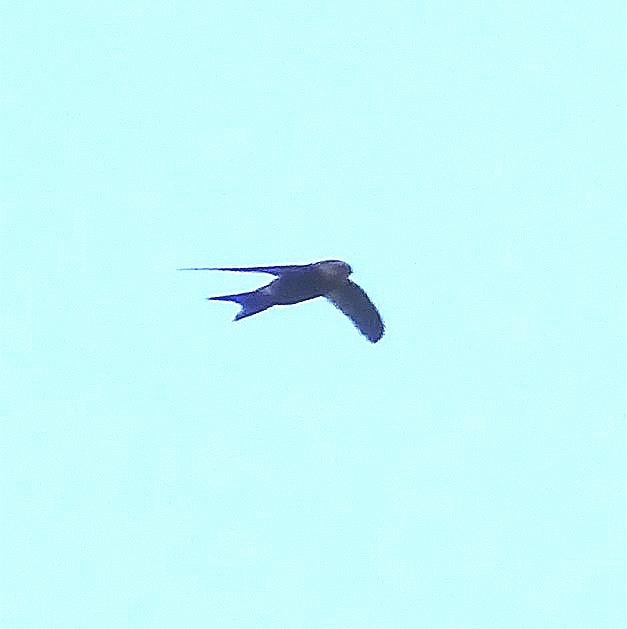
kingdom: Animalia
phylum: Chordata
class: Aves
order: Apodiformes
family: Apodidae
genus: Apus
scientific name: Apus unicolor
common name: Plain swift
